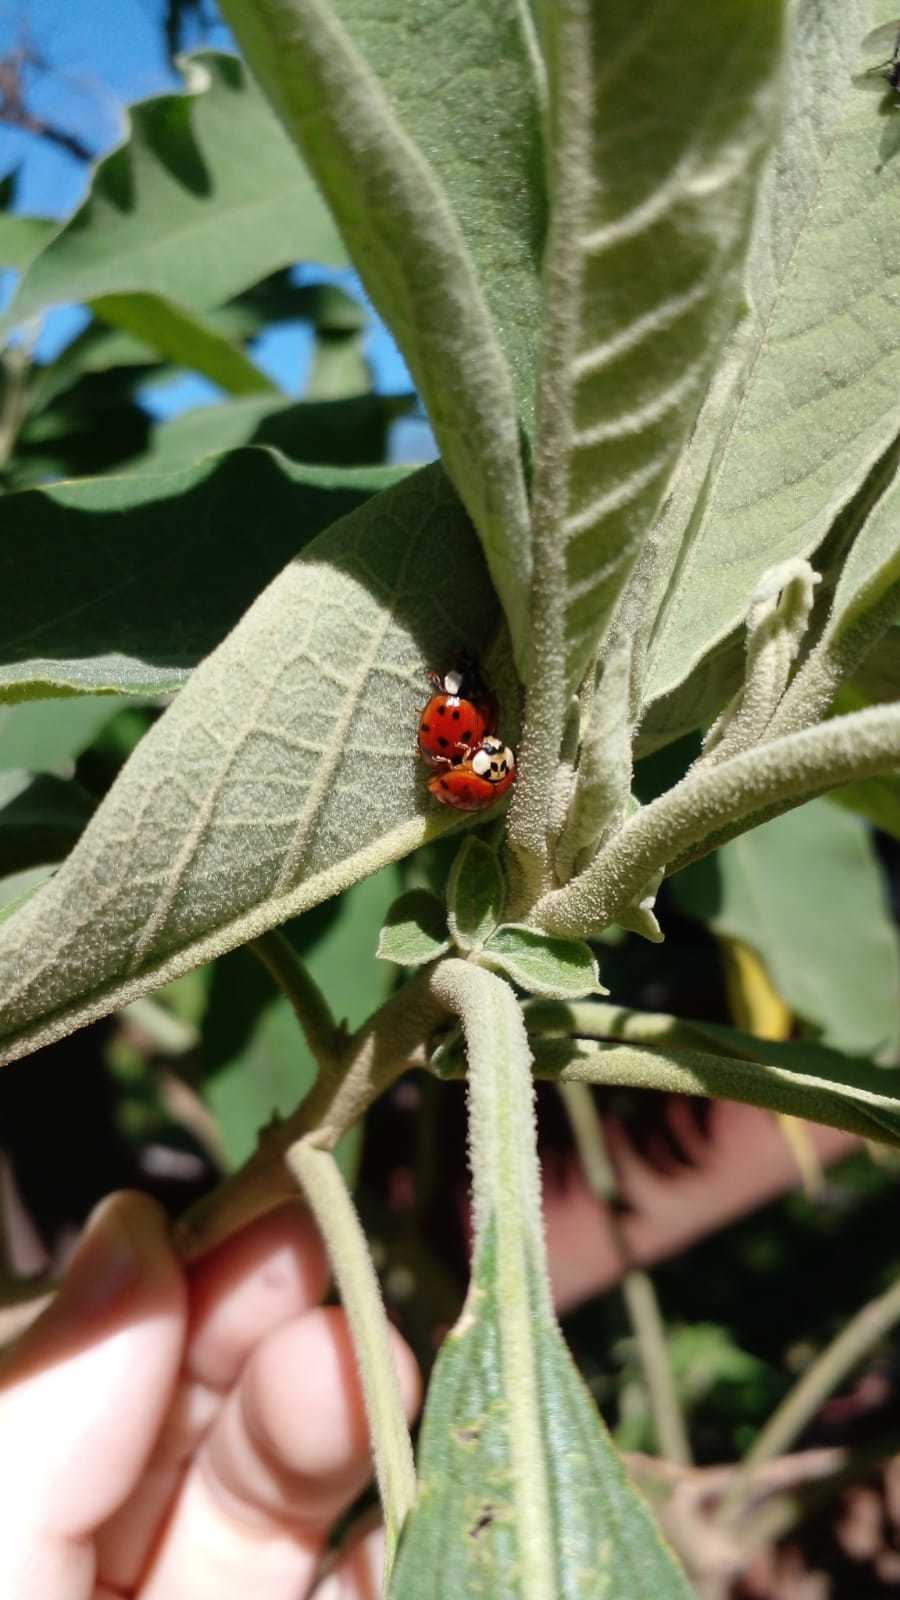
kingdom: Animalia
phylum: Arthropoda
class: Insecta
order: Coleoptera
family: Coccinellidae
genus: Harmonia
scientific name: Harmonia axyridis
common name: Harlequin ladybird
